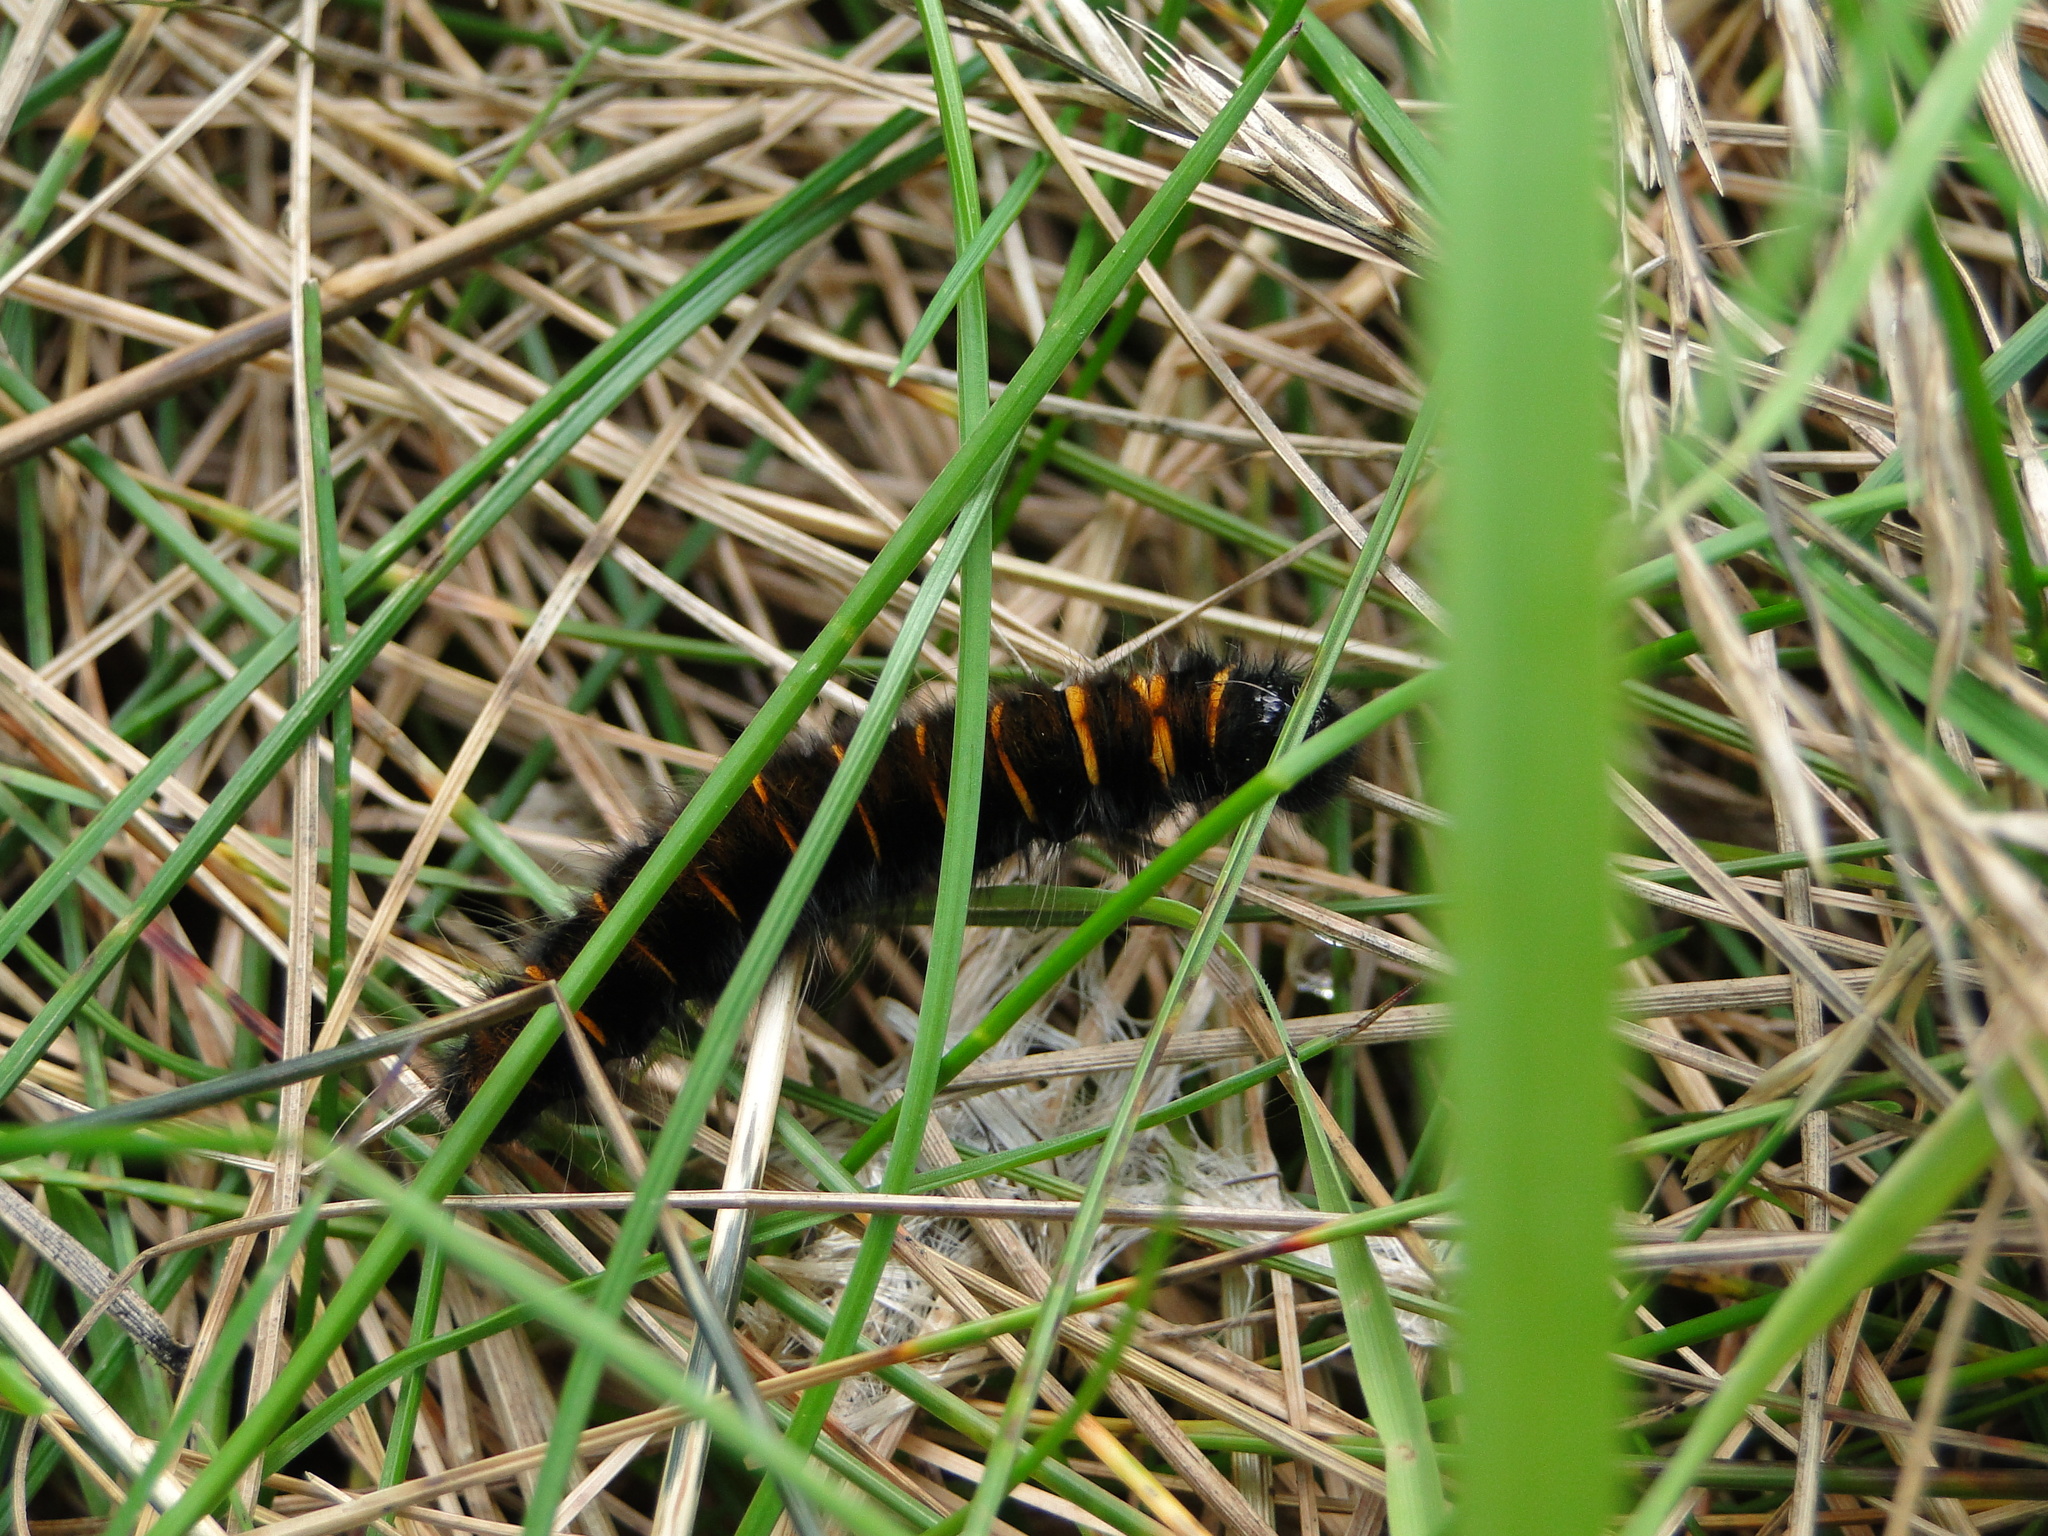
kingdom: Animalia
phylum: Arthropoda
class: Insecta
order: Lepidoptera
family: Lasiocampidae
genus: Macrothylacia
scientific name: Macrothylacia rubi
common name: Fox moth
